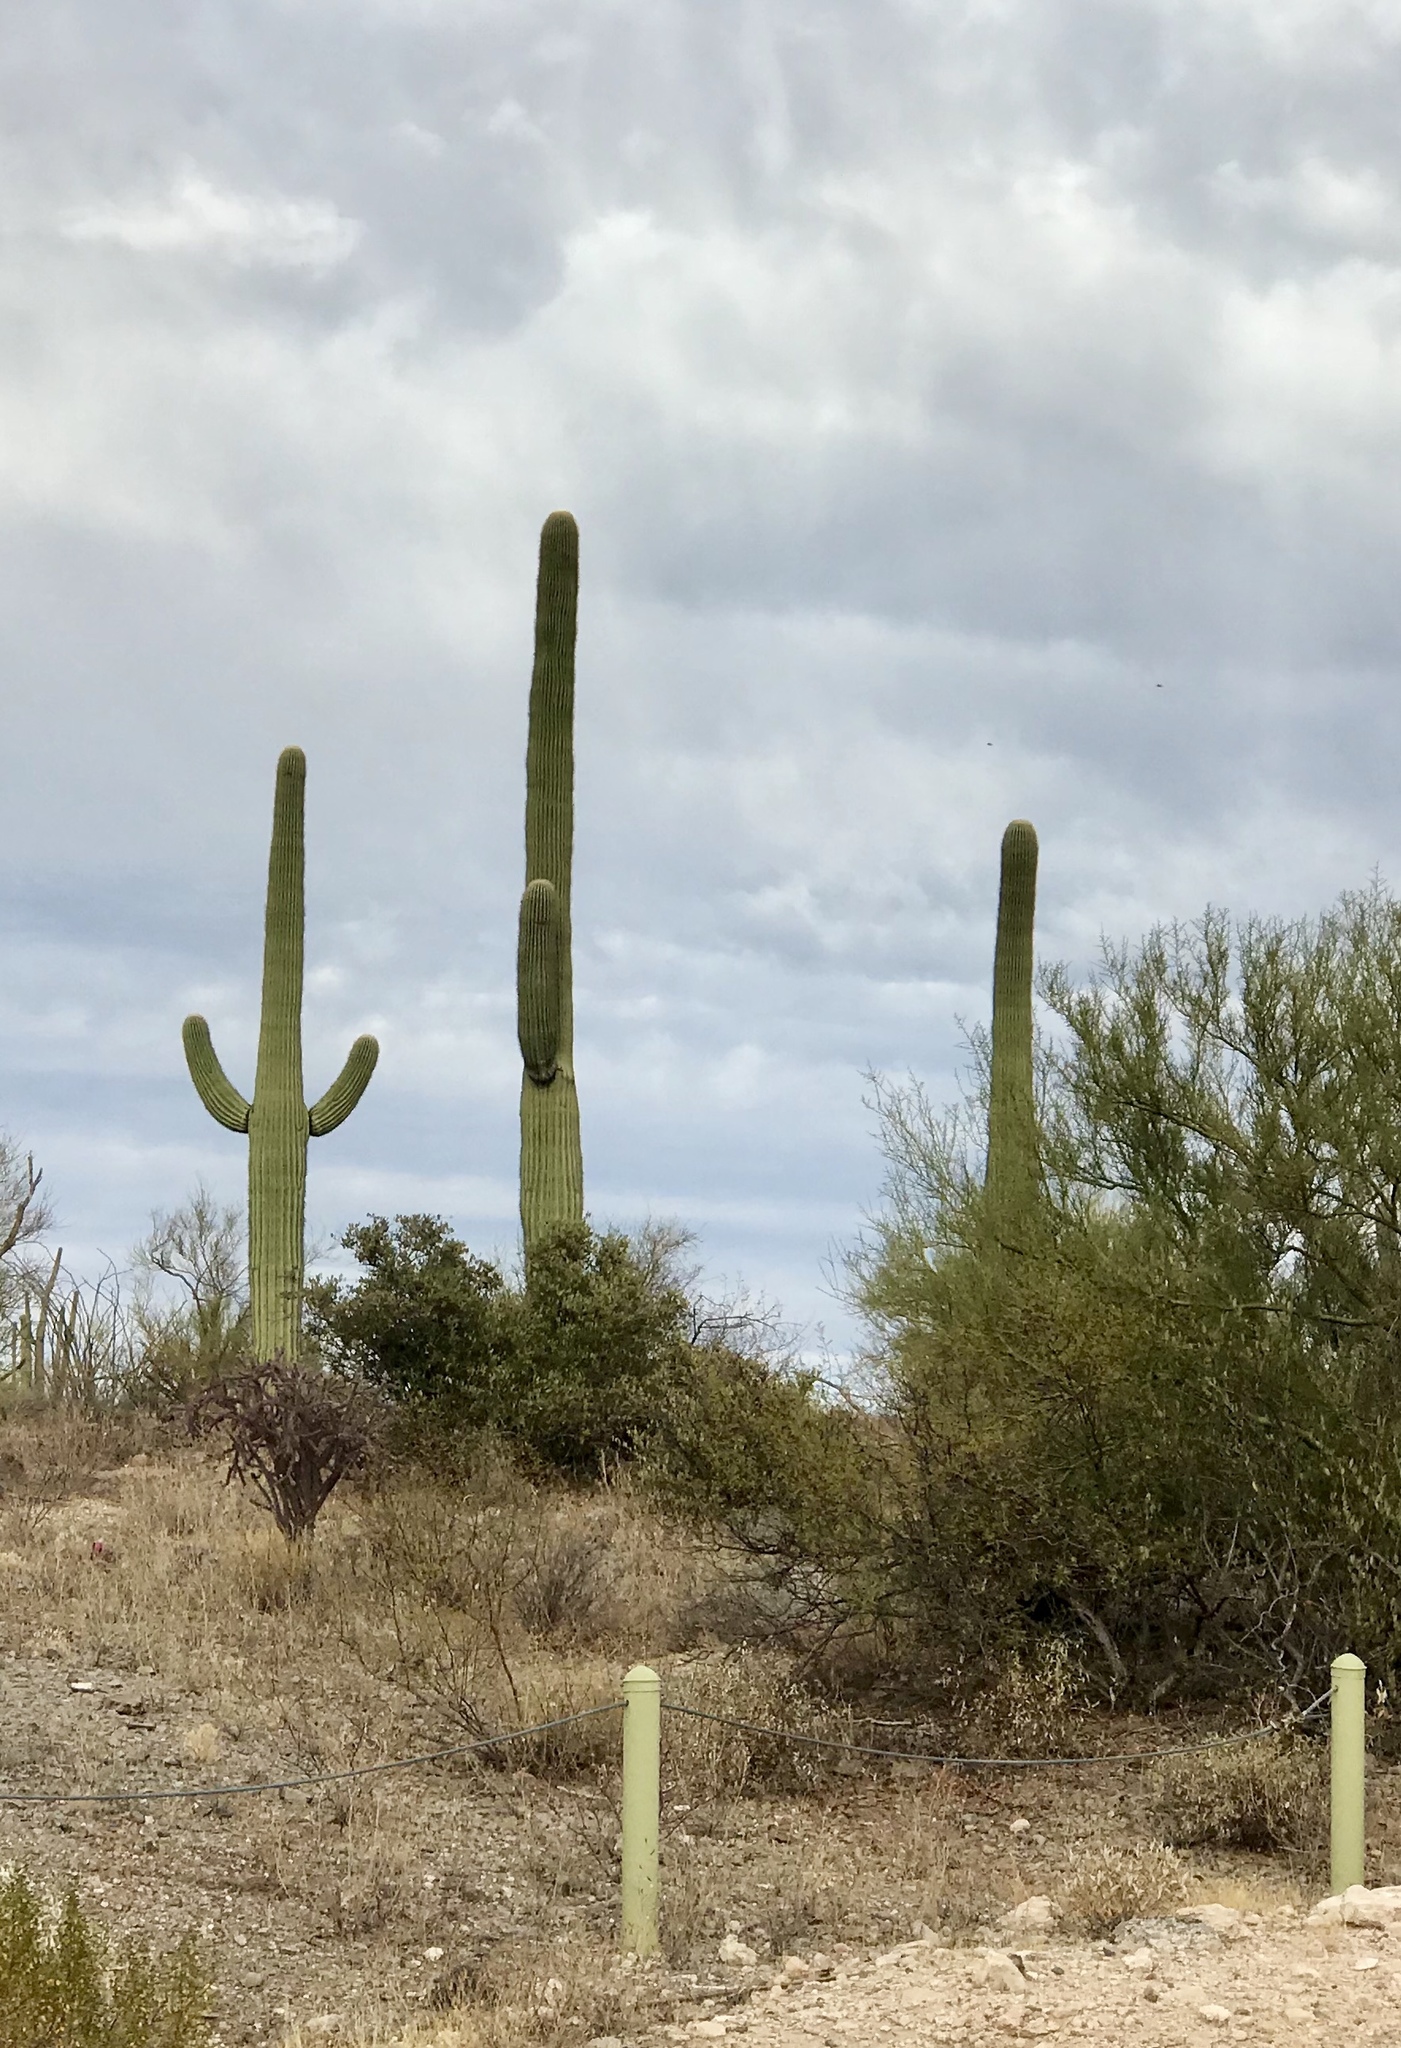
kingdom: Plantae
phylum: Tracheophyta
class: Magnoliopsida
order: Caryophyllales
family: Cactaceae
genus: Carnegiea
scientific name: Carnegiea gigantea
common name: Saguaro
